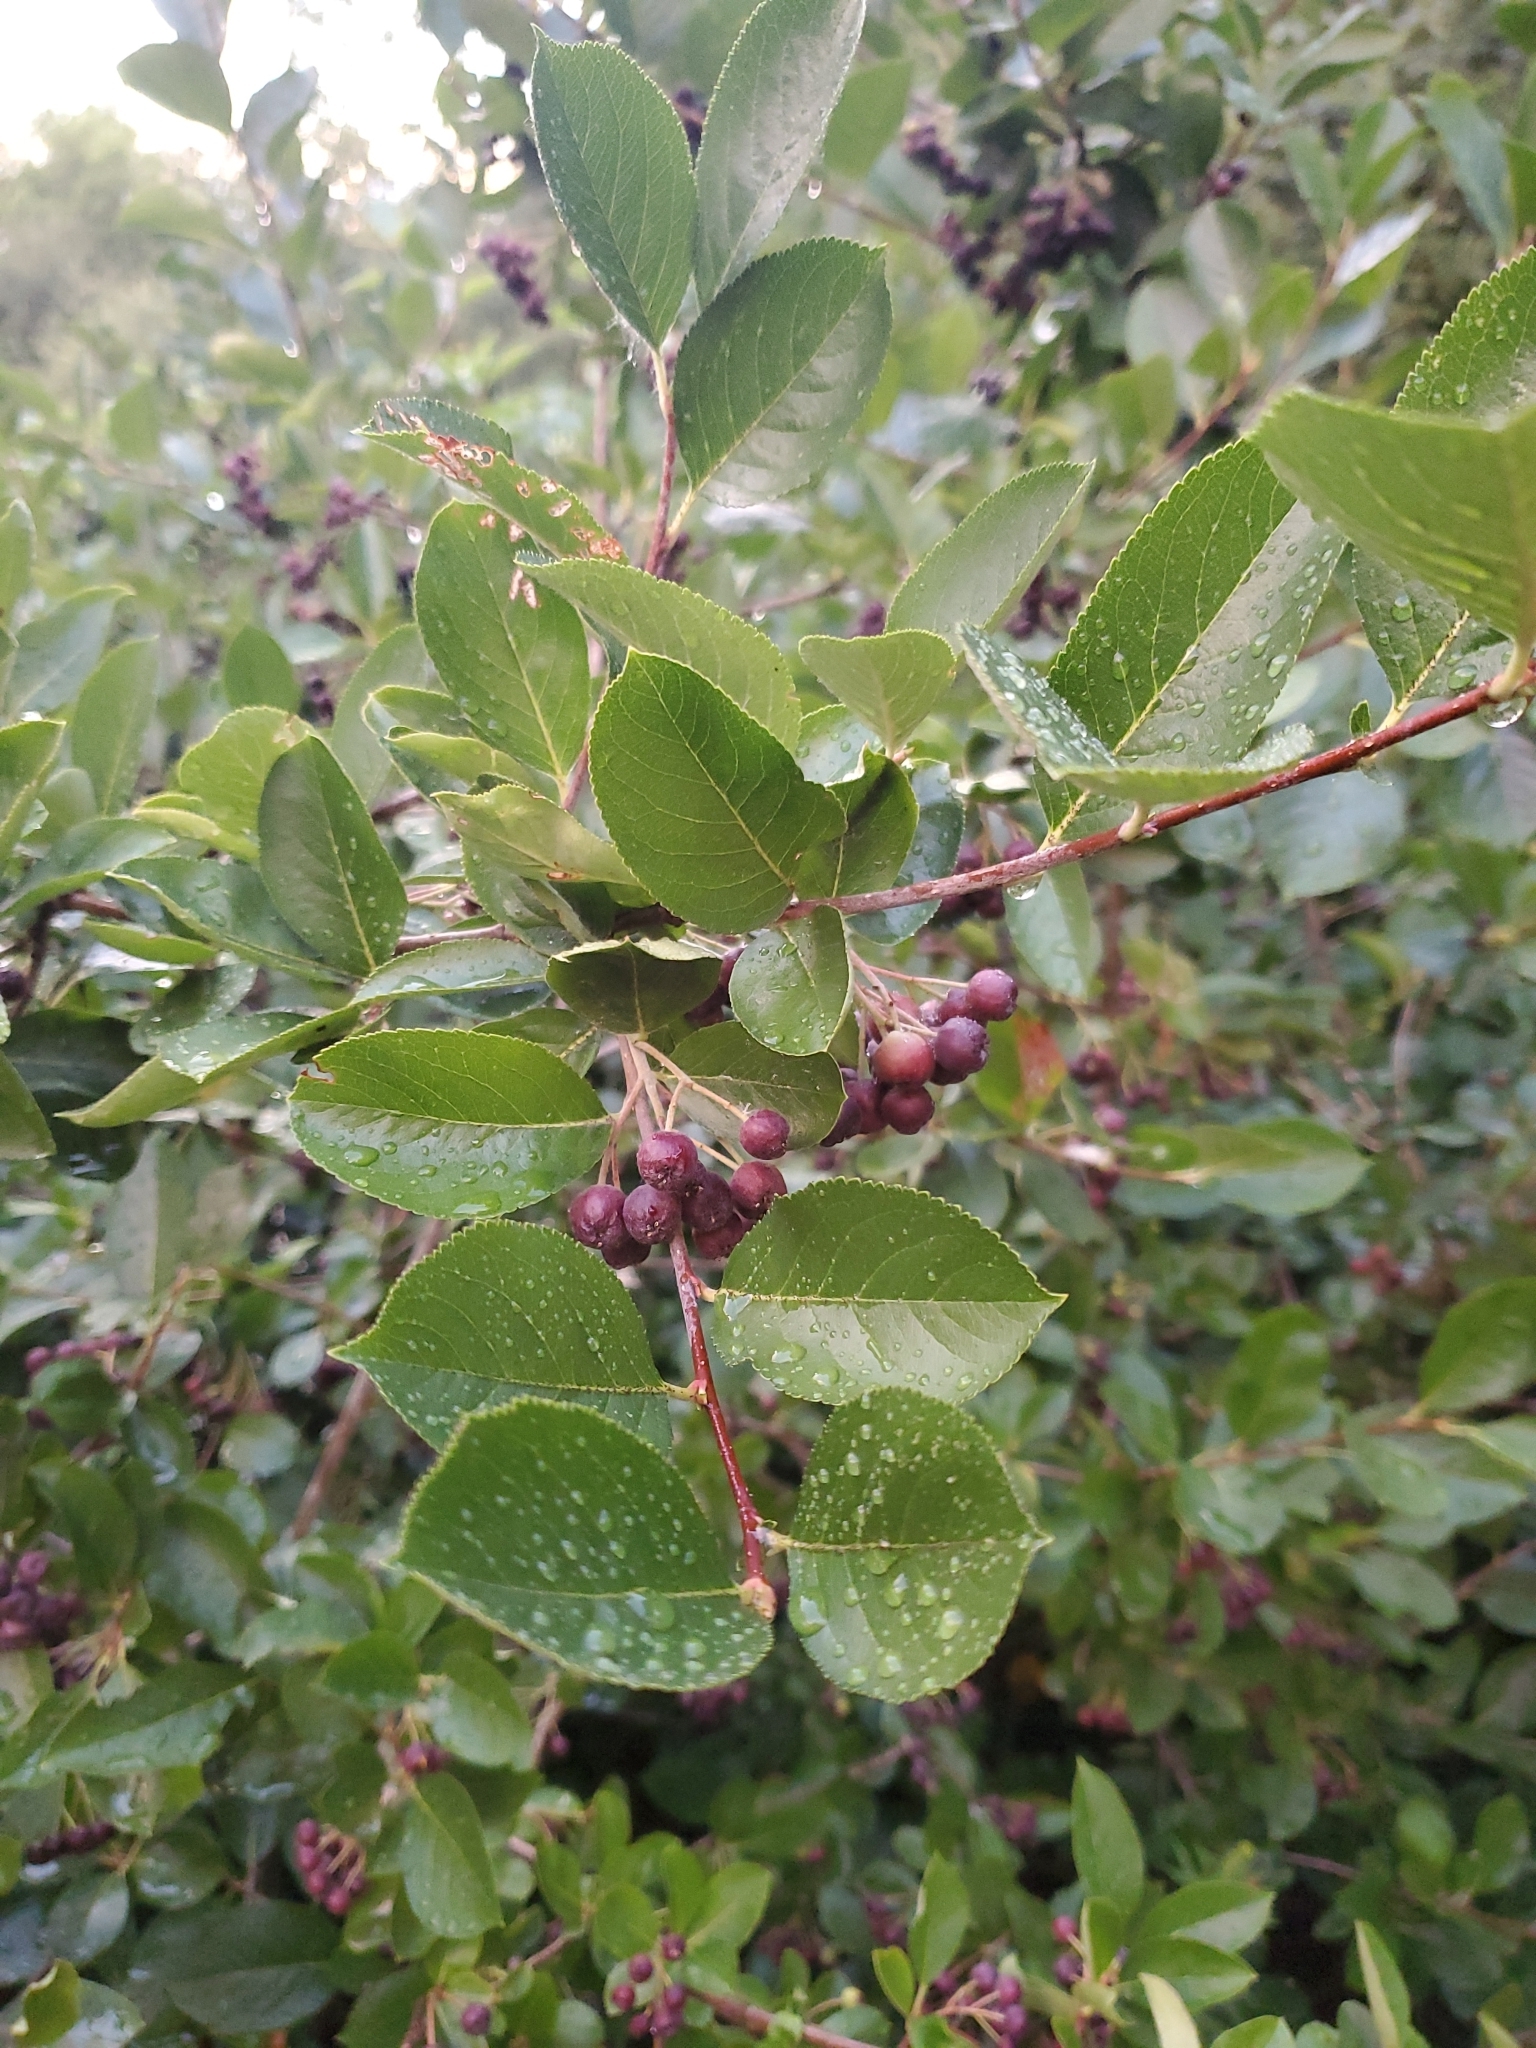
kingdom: Plantae
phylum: Tracheophyta
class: Magnoliopsida
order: Rosales
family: Rosaceae
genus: Aronia
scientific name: Aronia melanocarpa
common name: Black chokeberry
